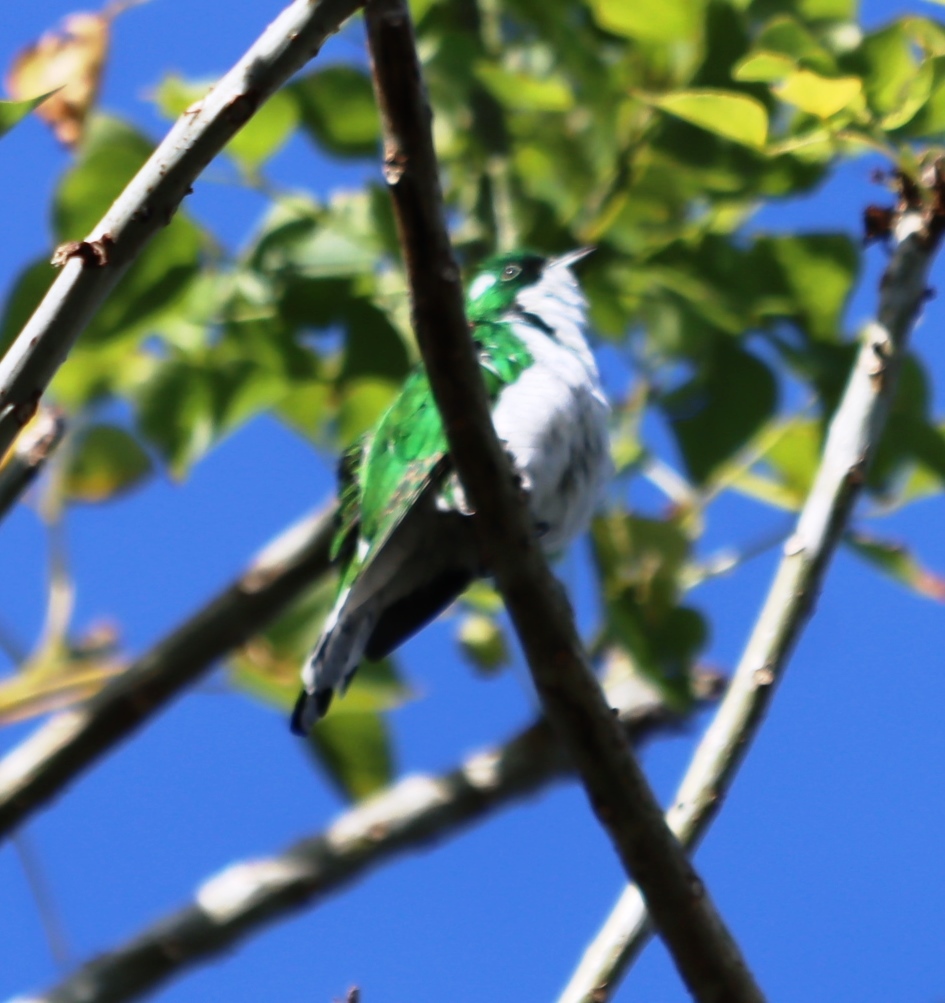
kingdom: Animalia
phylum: Chordata
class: Aves
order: Cuculiformes
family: Cuculidae
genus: Chrysococcyx
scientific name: Chrysococcyx klaas
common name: Klaas's cuckoo
